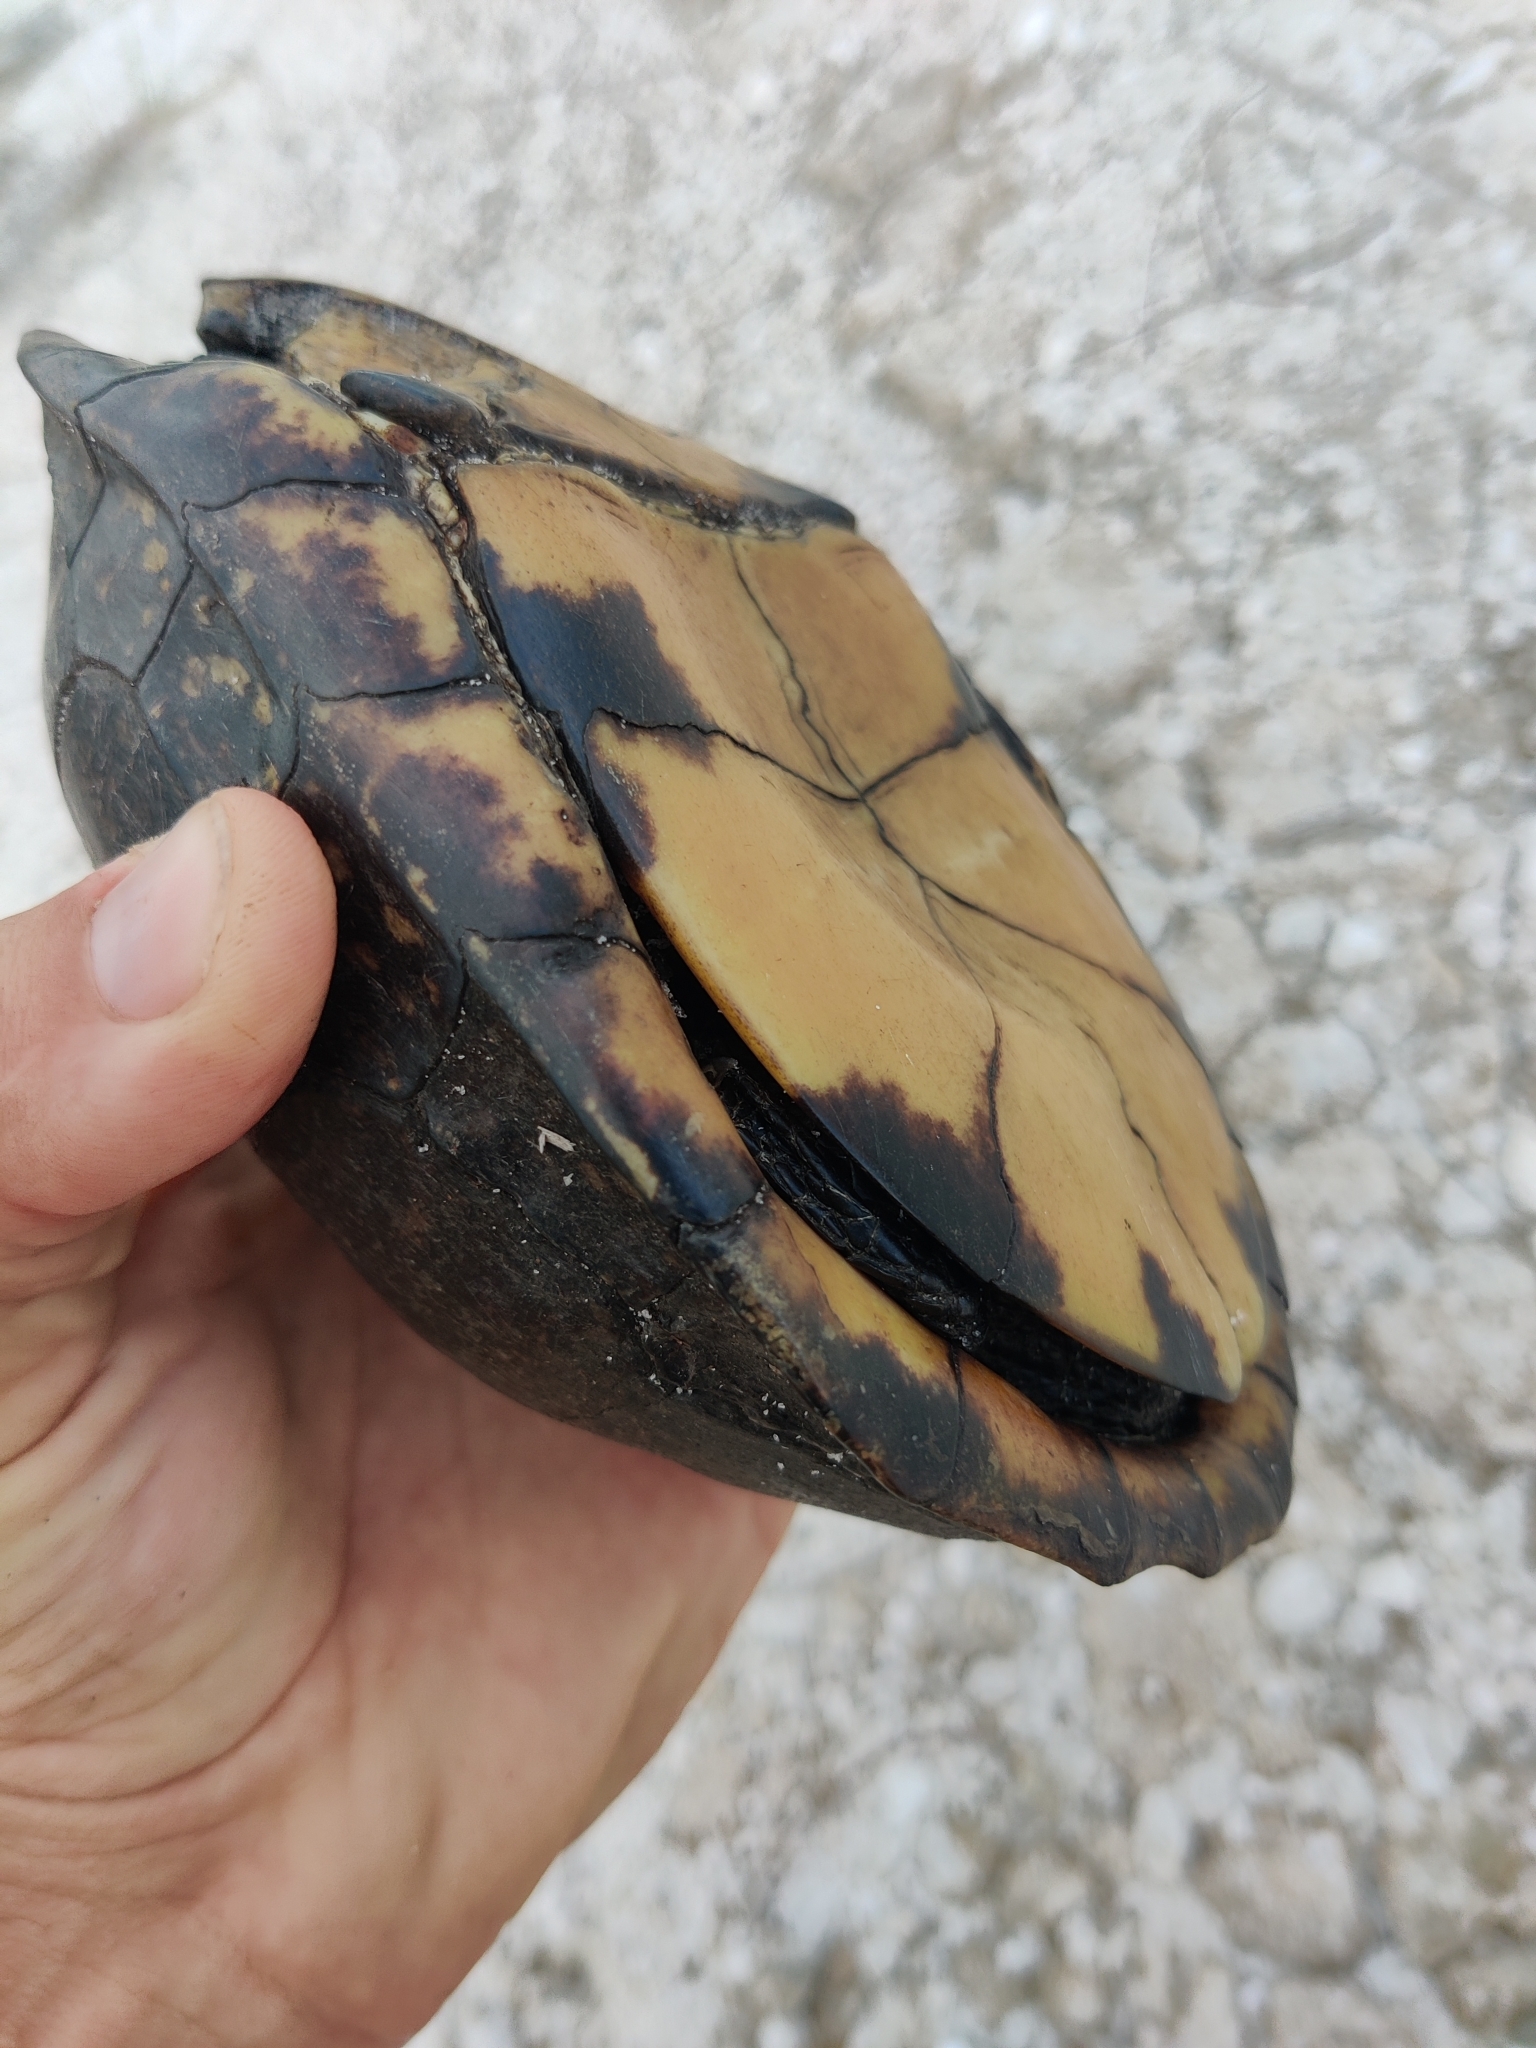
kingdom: Animalia
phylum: Chordata
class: Testudines
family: Emydidae
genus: Terrapene
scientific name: Terrapene carolina
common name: Common box turtle
